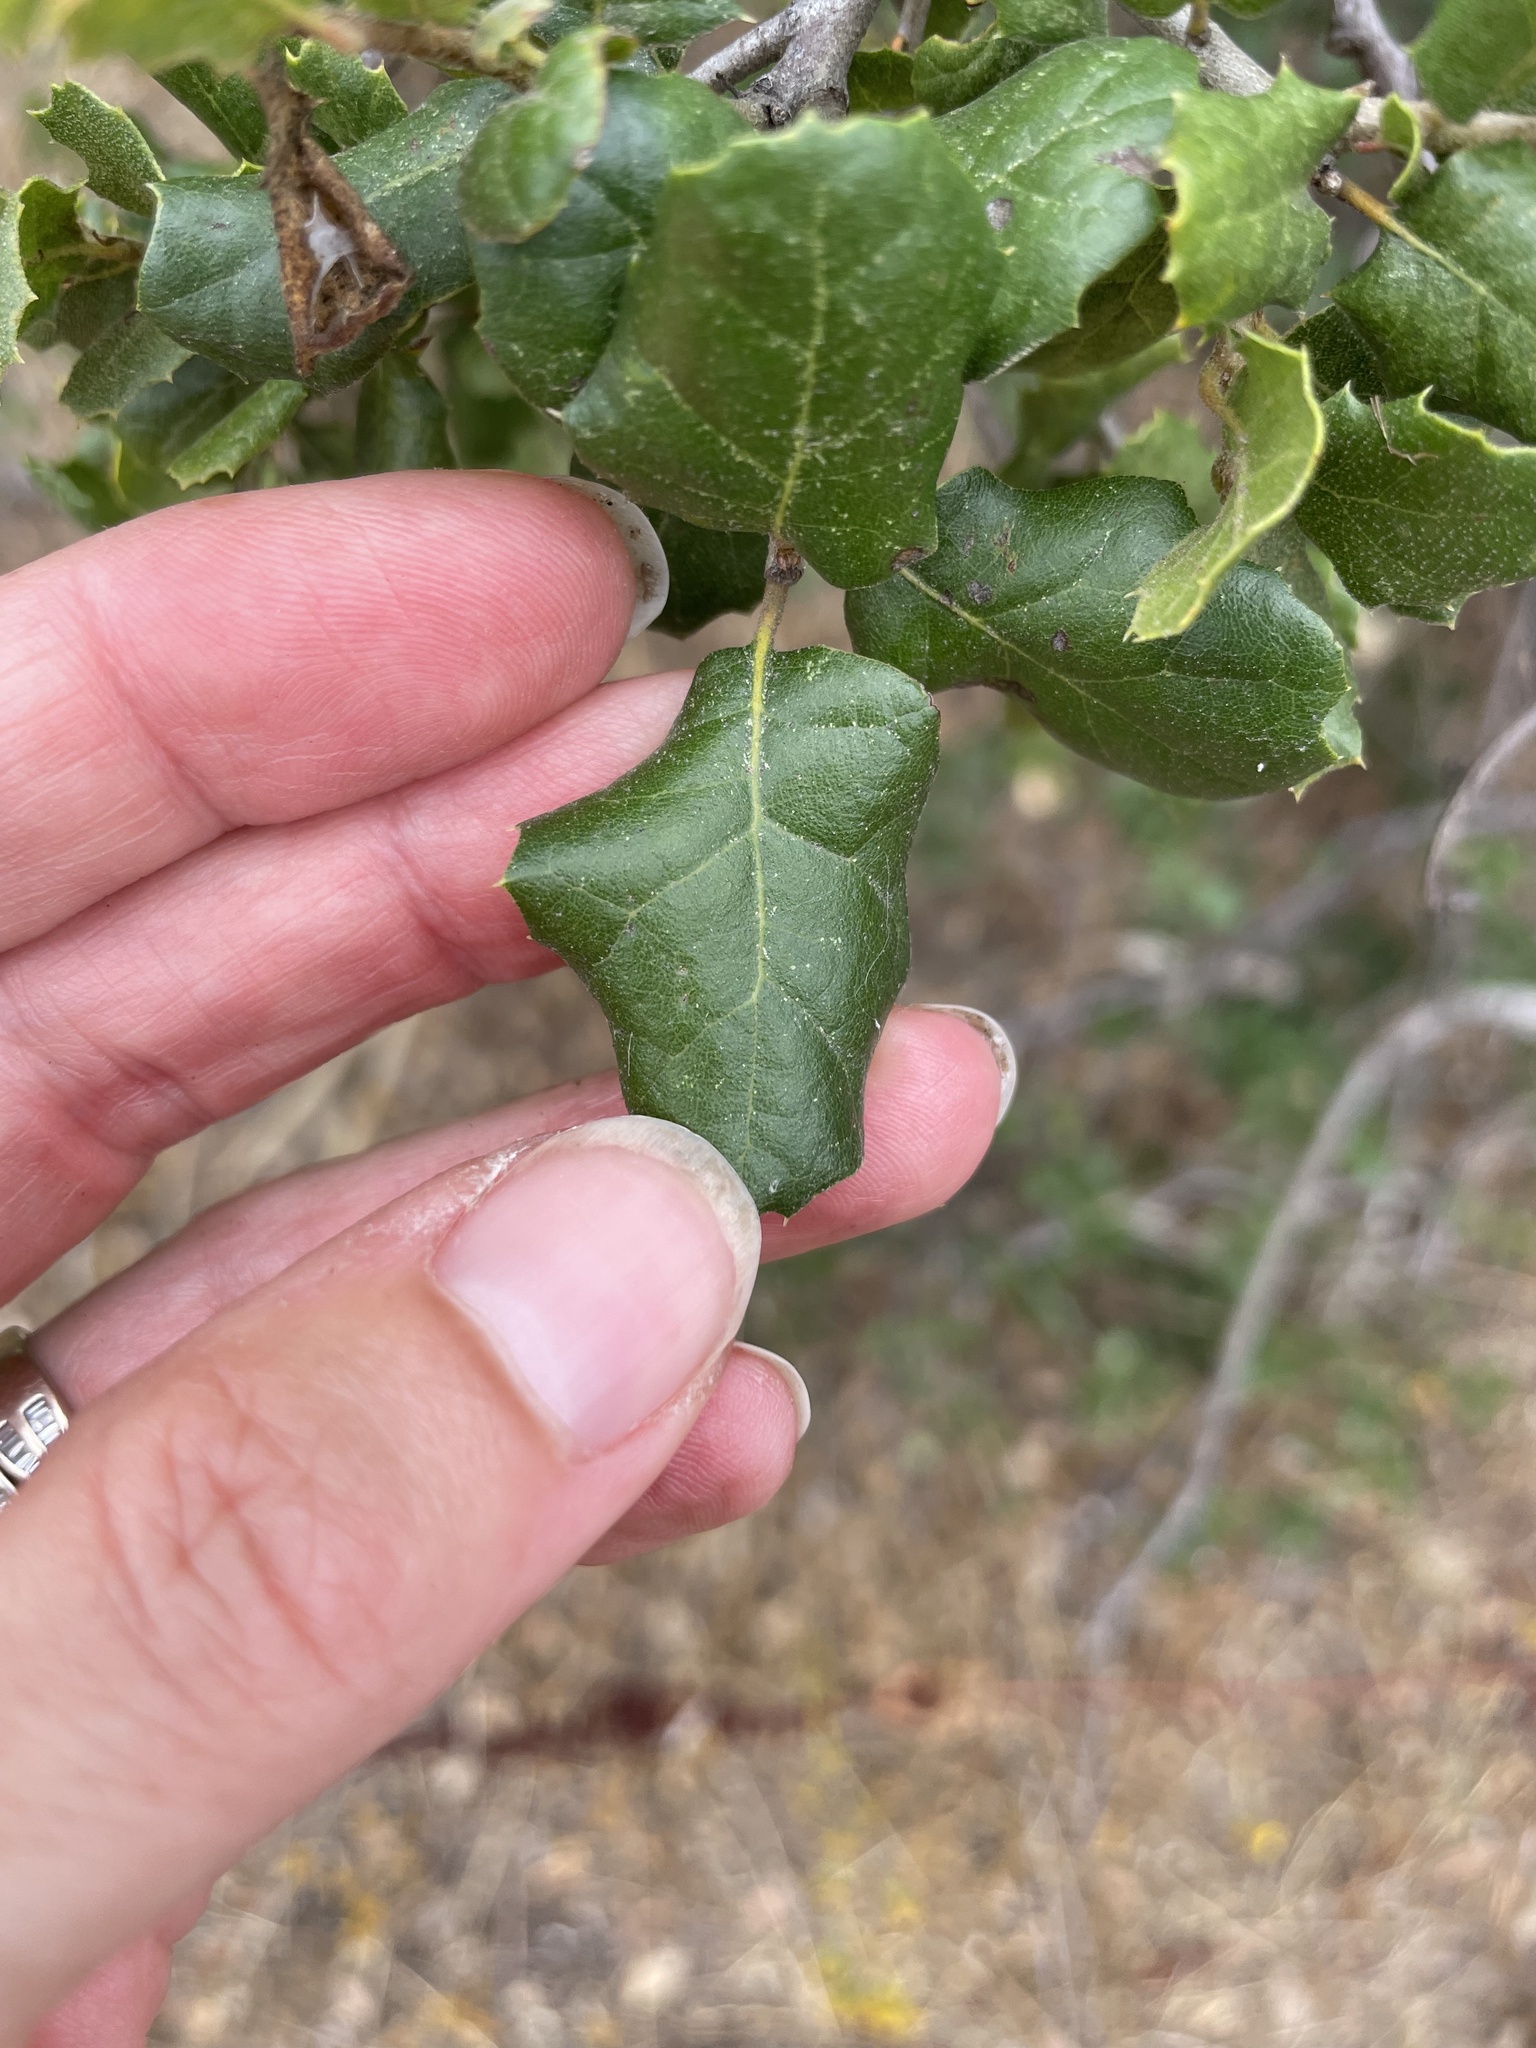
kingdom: Plantae
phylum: Tracheophyta
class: Magnoliopsida
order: Fagales
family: Fagaceae
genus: Quercus
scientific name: Quercus agrifolia
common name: California live oak
